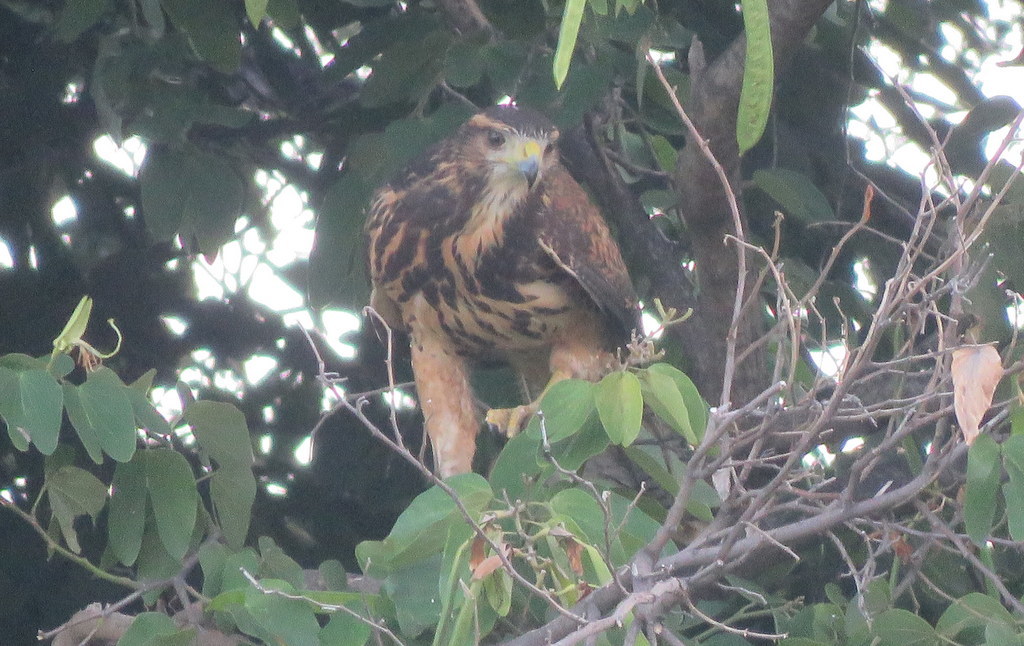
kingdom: Animalia
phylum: Chordata
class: Aves
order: Accipitriformes
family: Accipitridae
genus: Parabuteo
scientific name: Parabuteo unicinctus
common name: Harris's hawk
